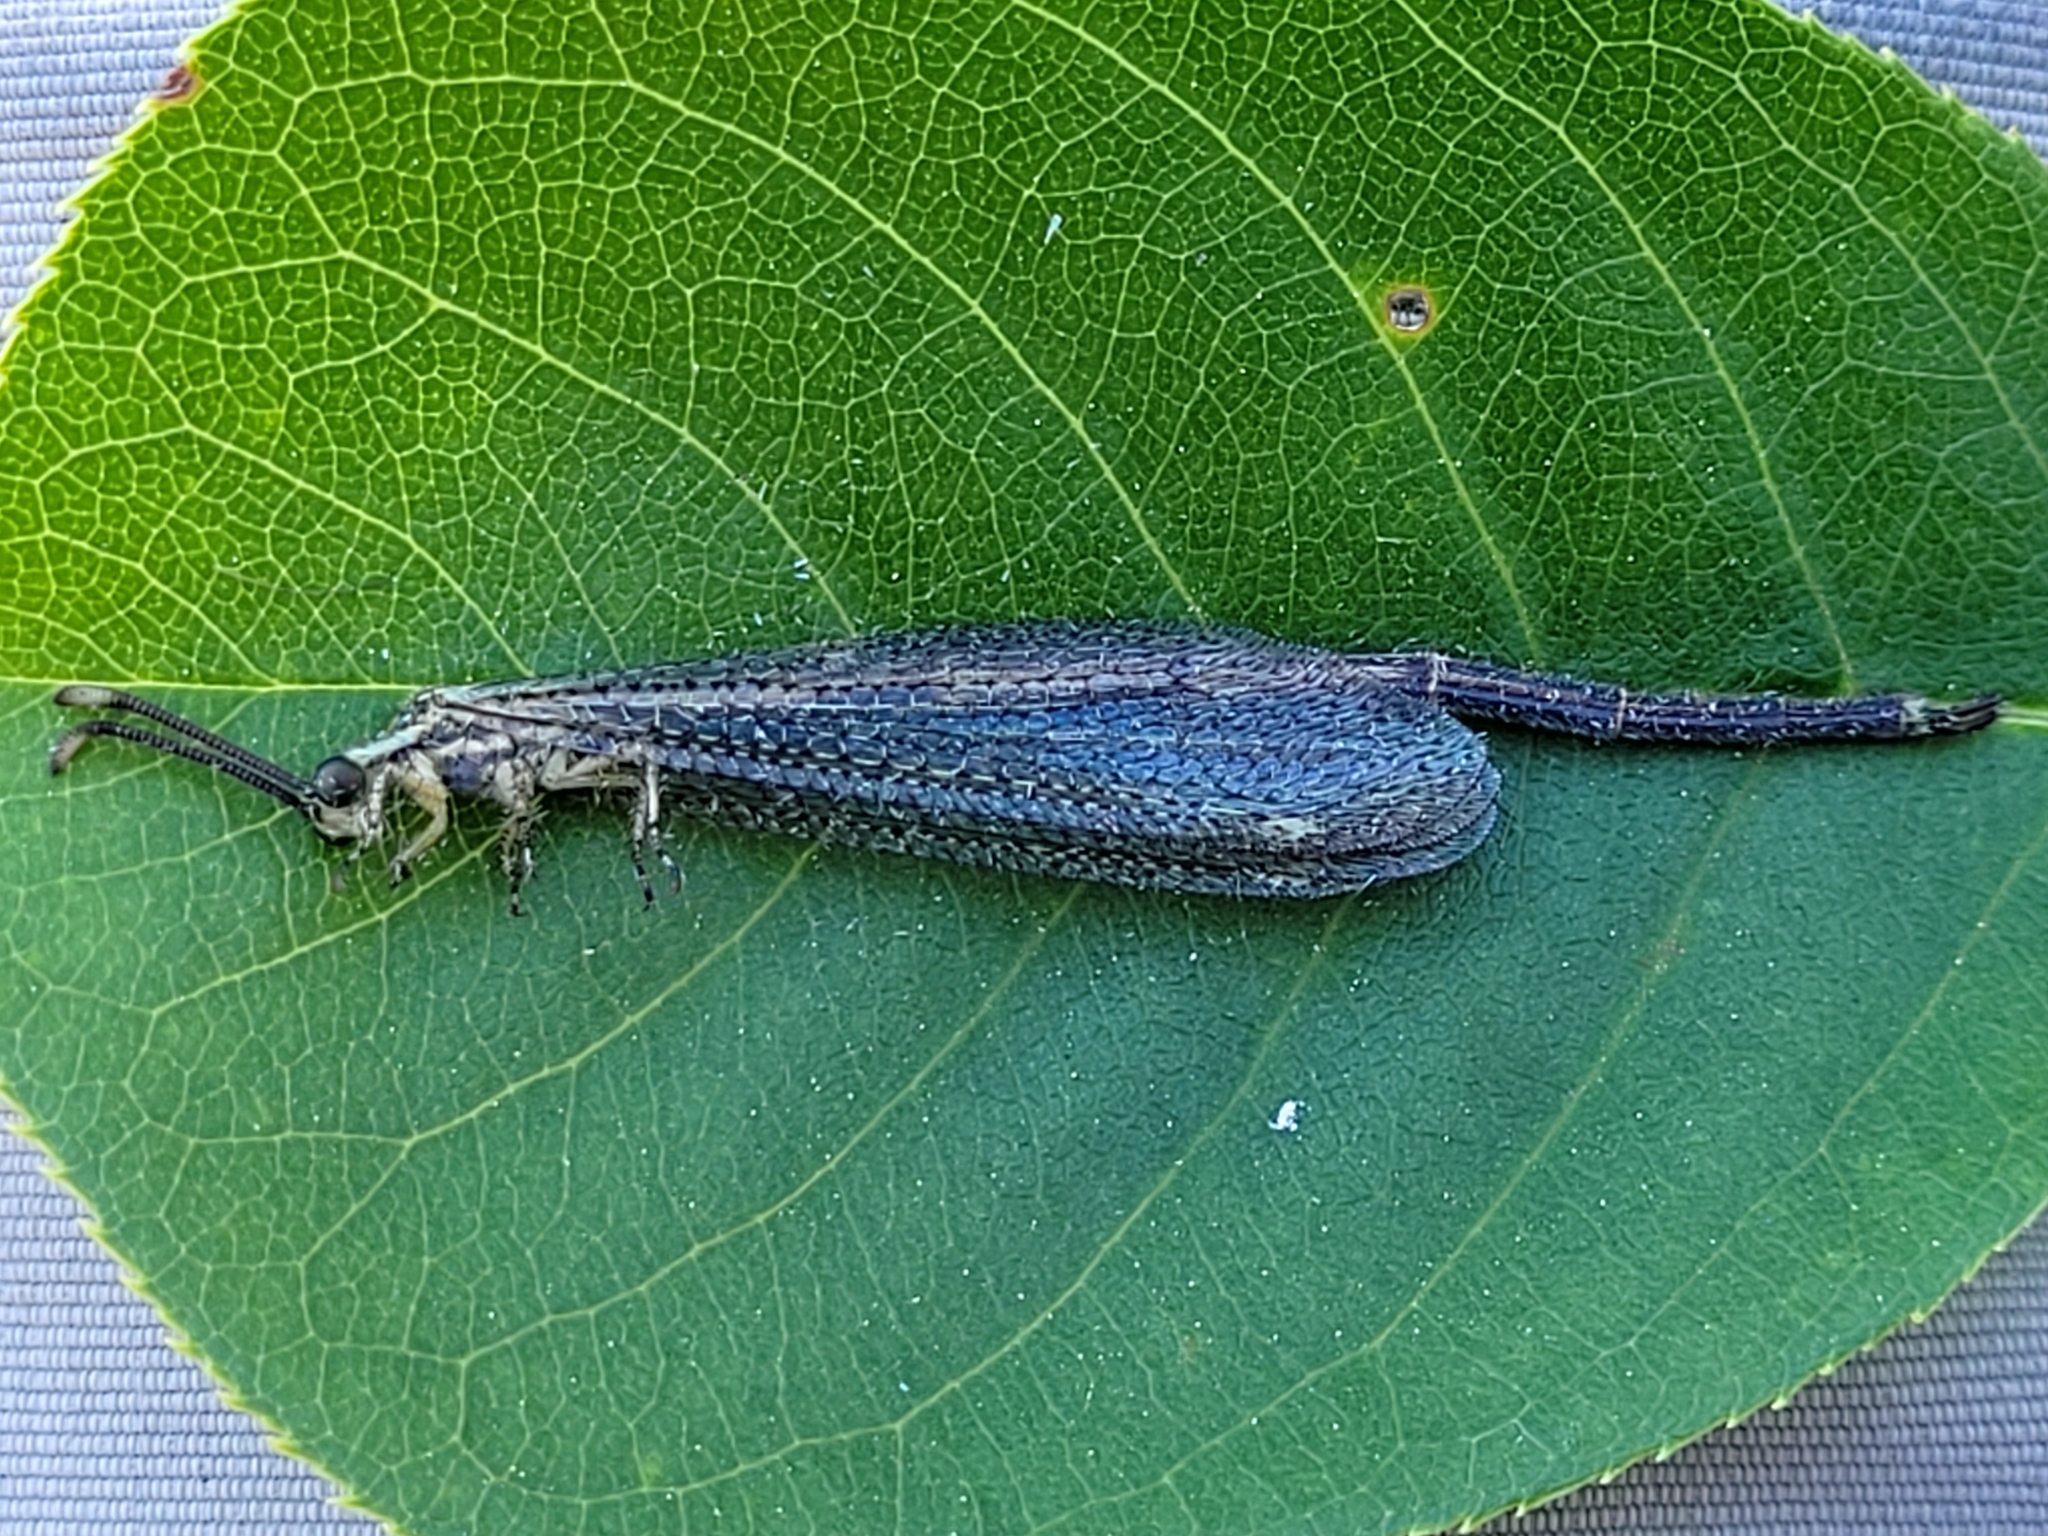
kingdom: Animalia
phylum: Arthropoda
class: Insecta
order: Neuroptera
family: Myrmeleontidae
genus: Brachynemurus
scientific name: Brachynemurus abdominalis
